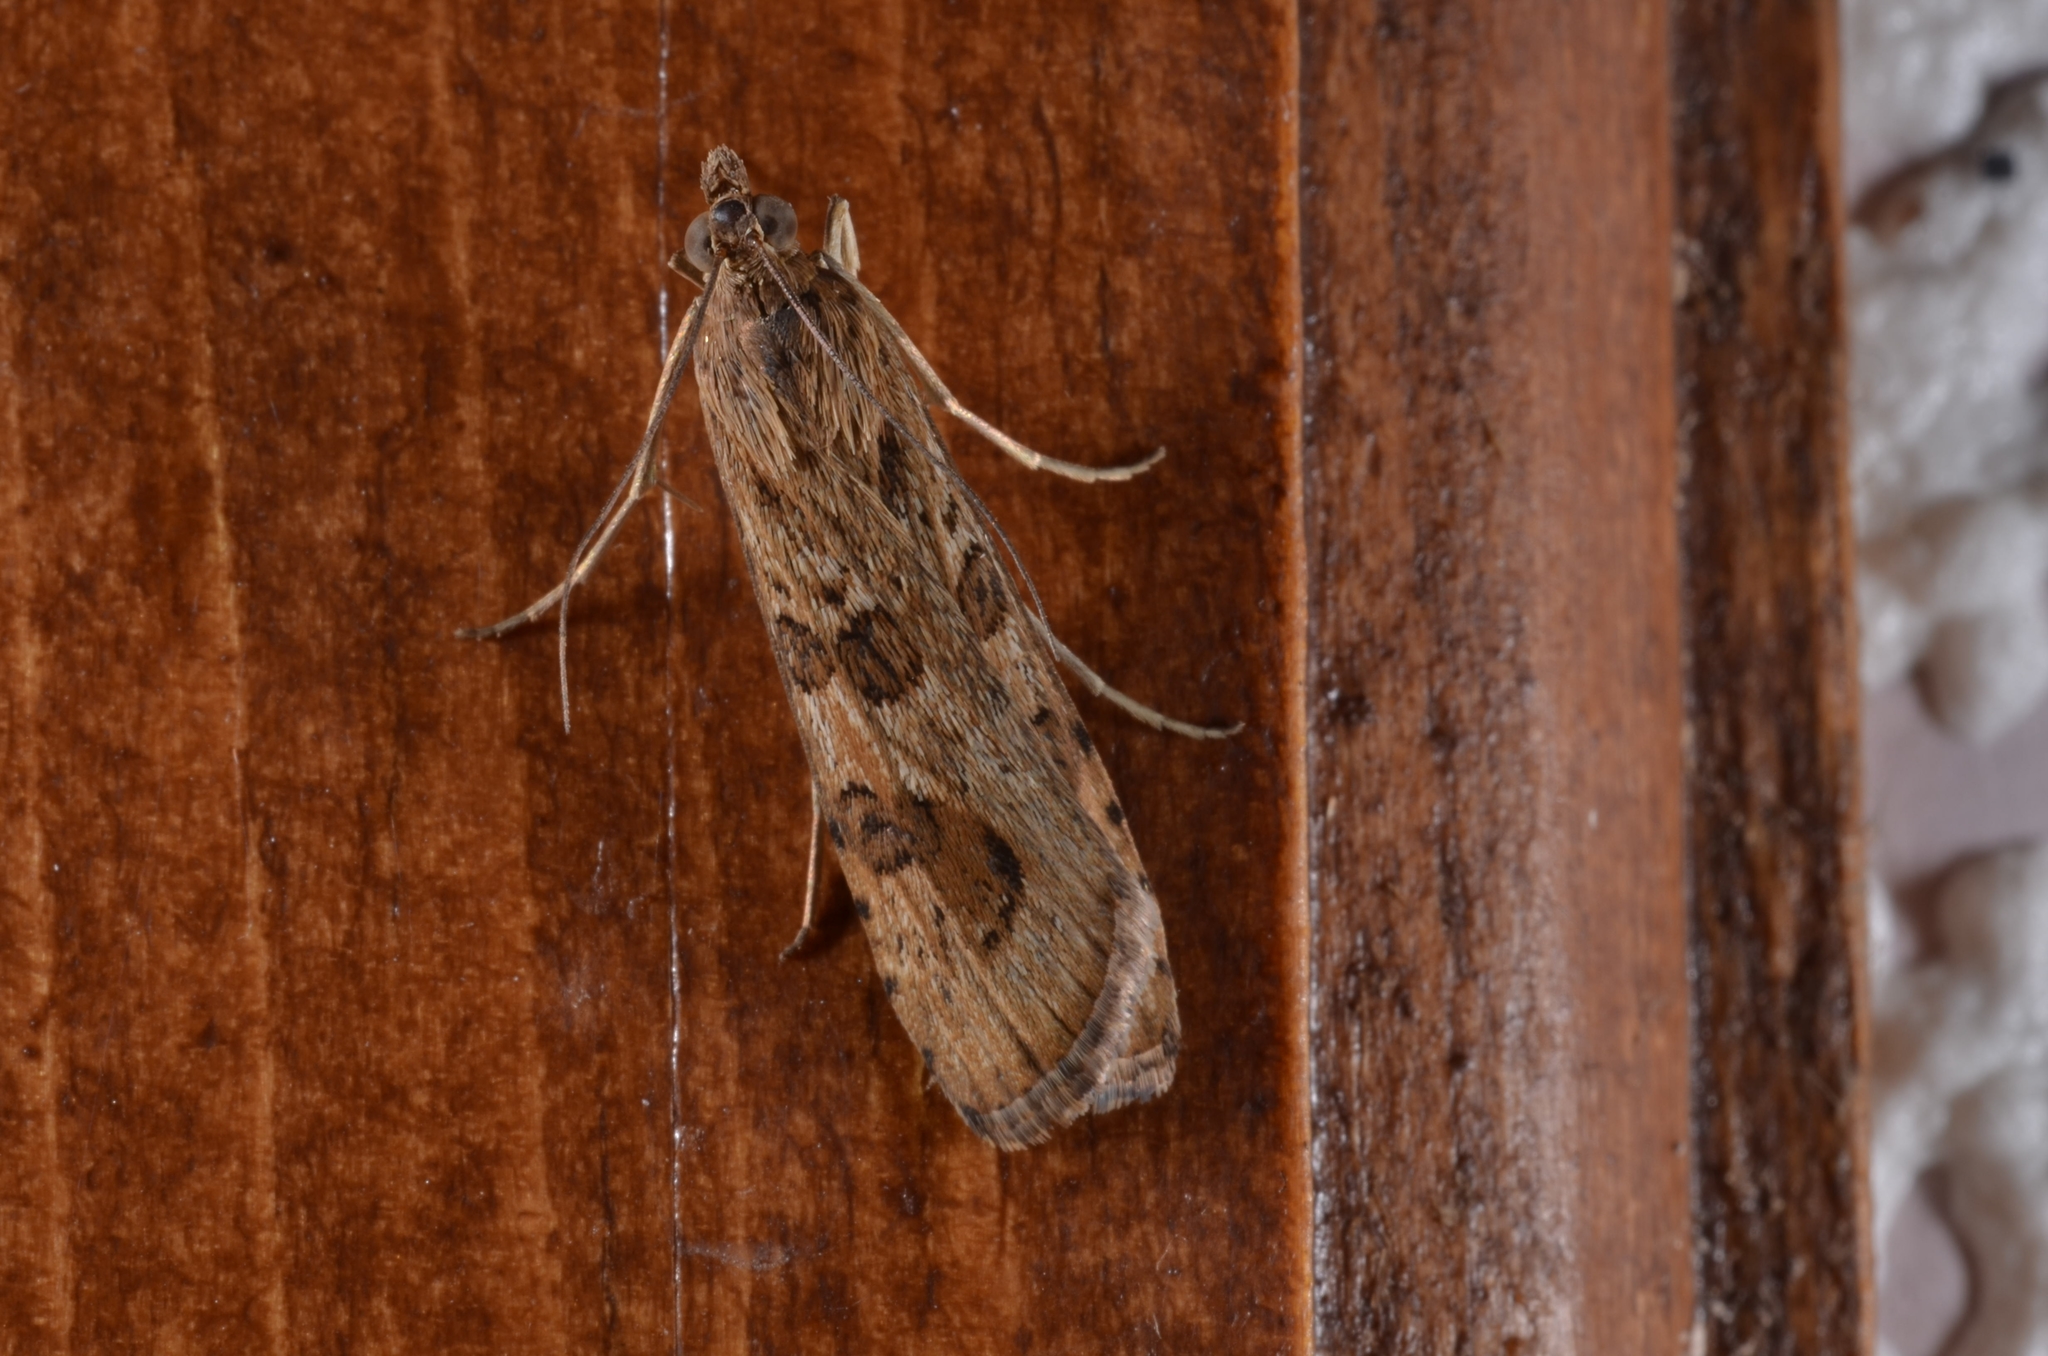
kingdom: Animalia
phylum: Arthropoda
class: Insecta
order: Lepidoptera
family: Crambidae
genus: Nomophila
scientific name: Nomophila noctuella
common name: Rush veneer
